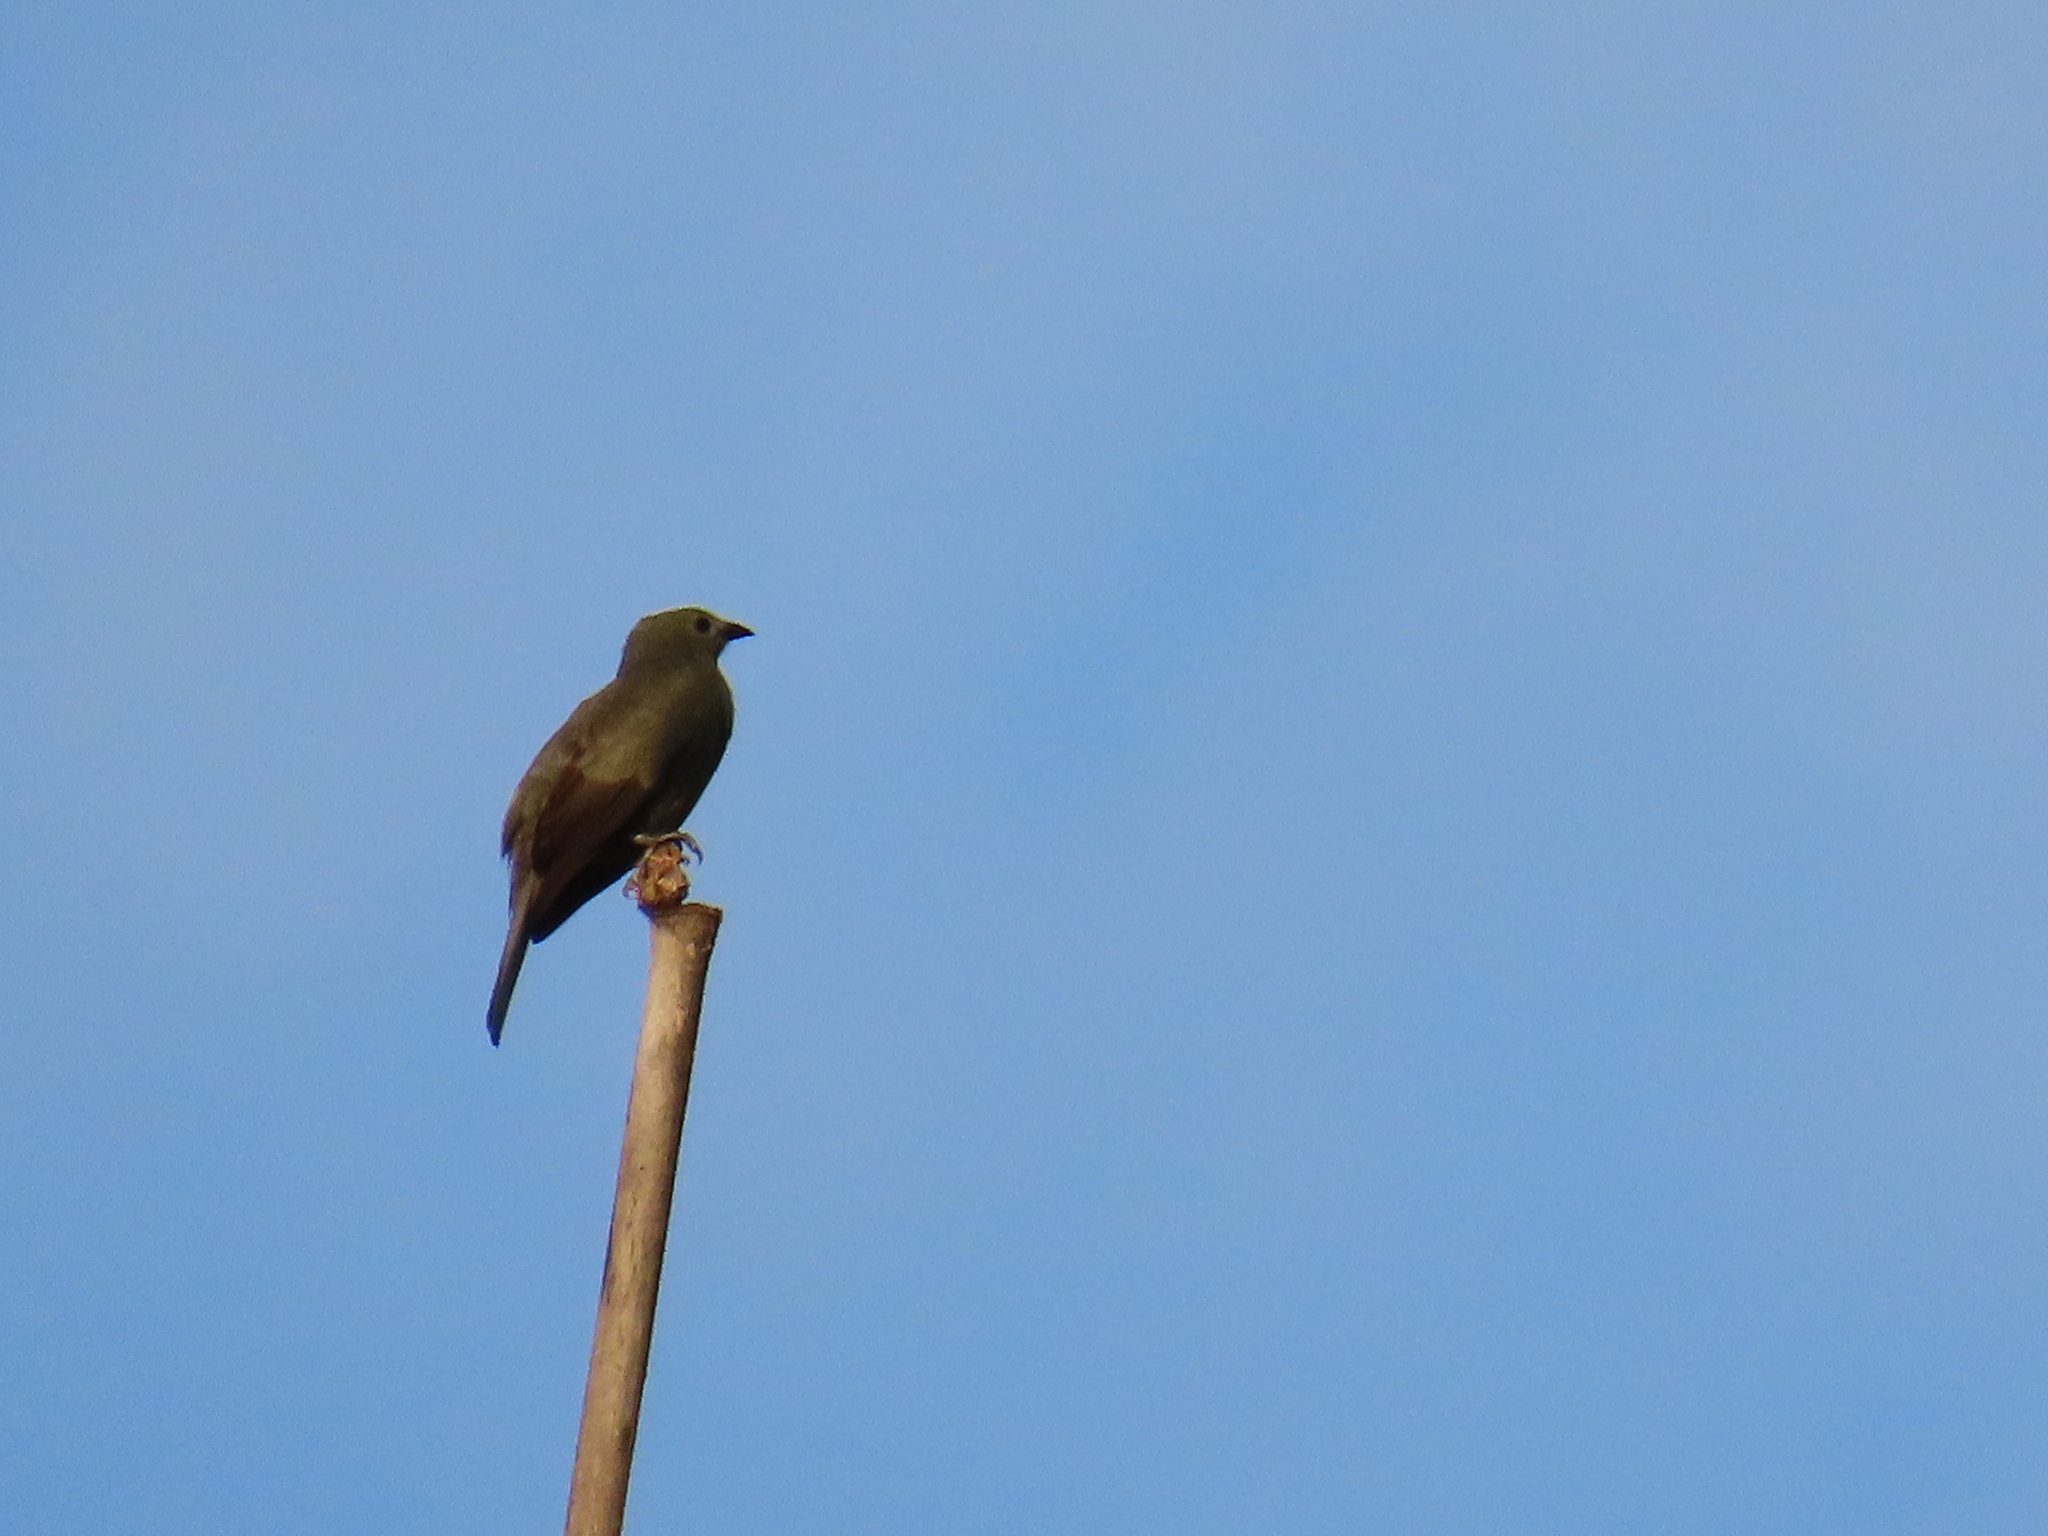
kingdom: Animalia
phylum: Chordata
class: Aves
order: Passeriformes
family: Thraupidae
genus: Thraupis
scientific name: Thraupis palmarum
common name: Palm tanager
